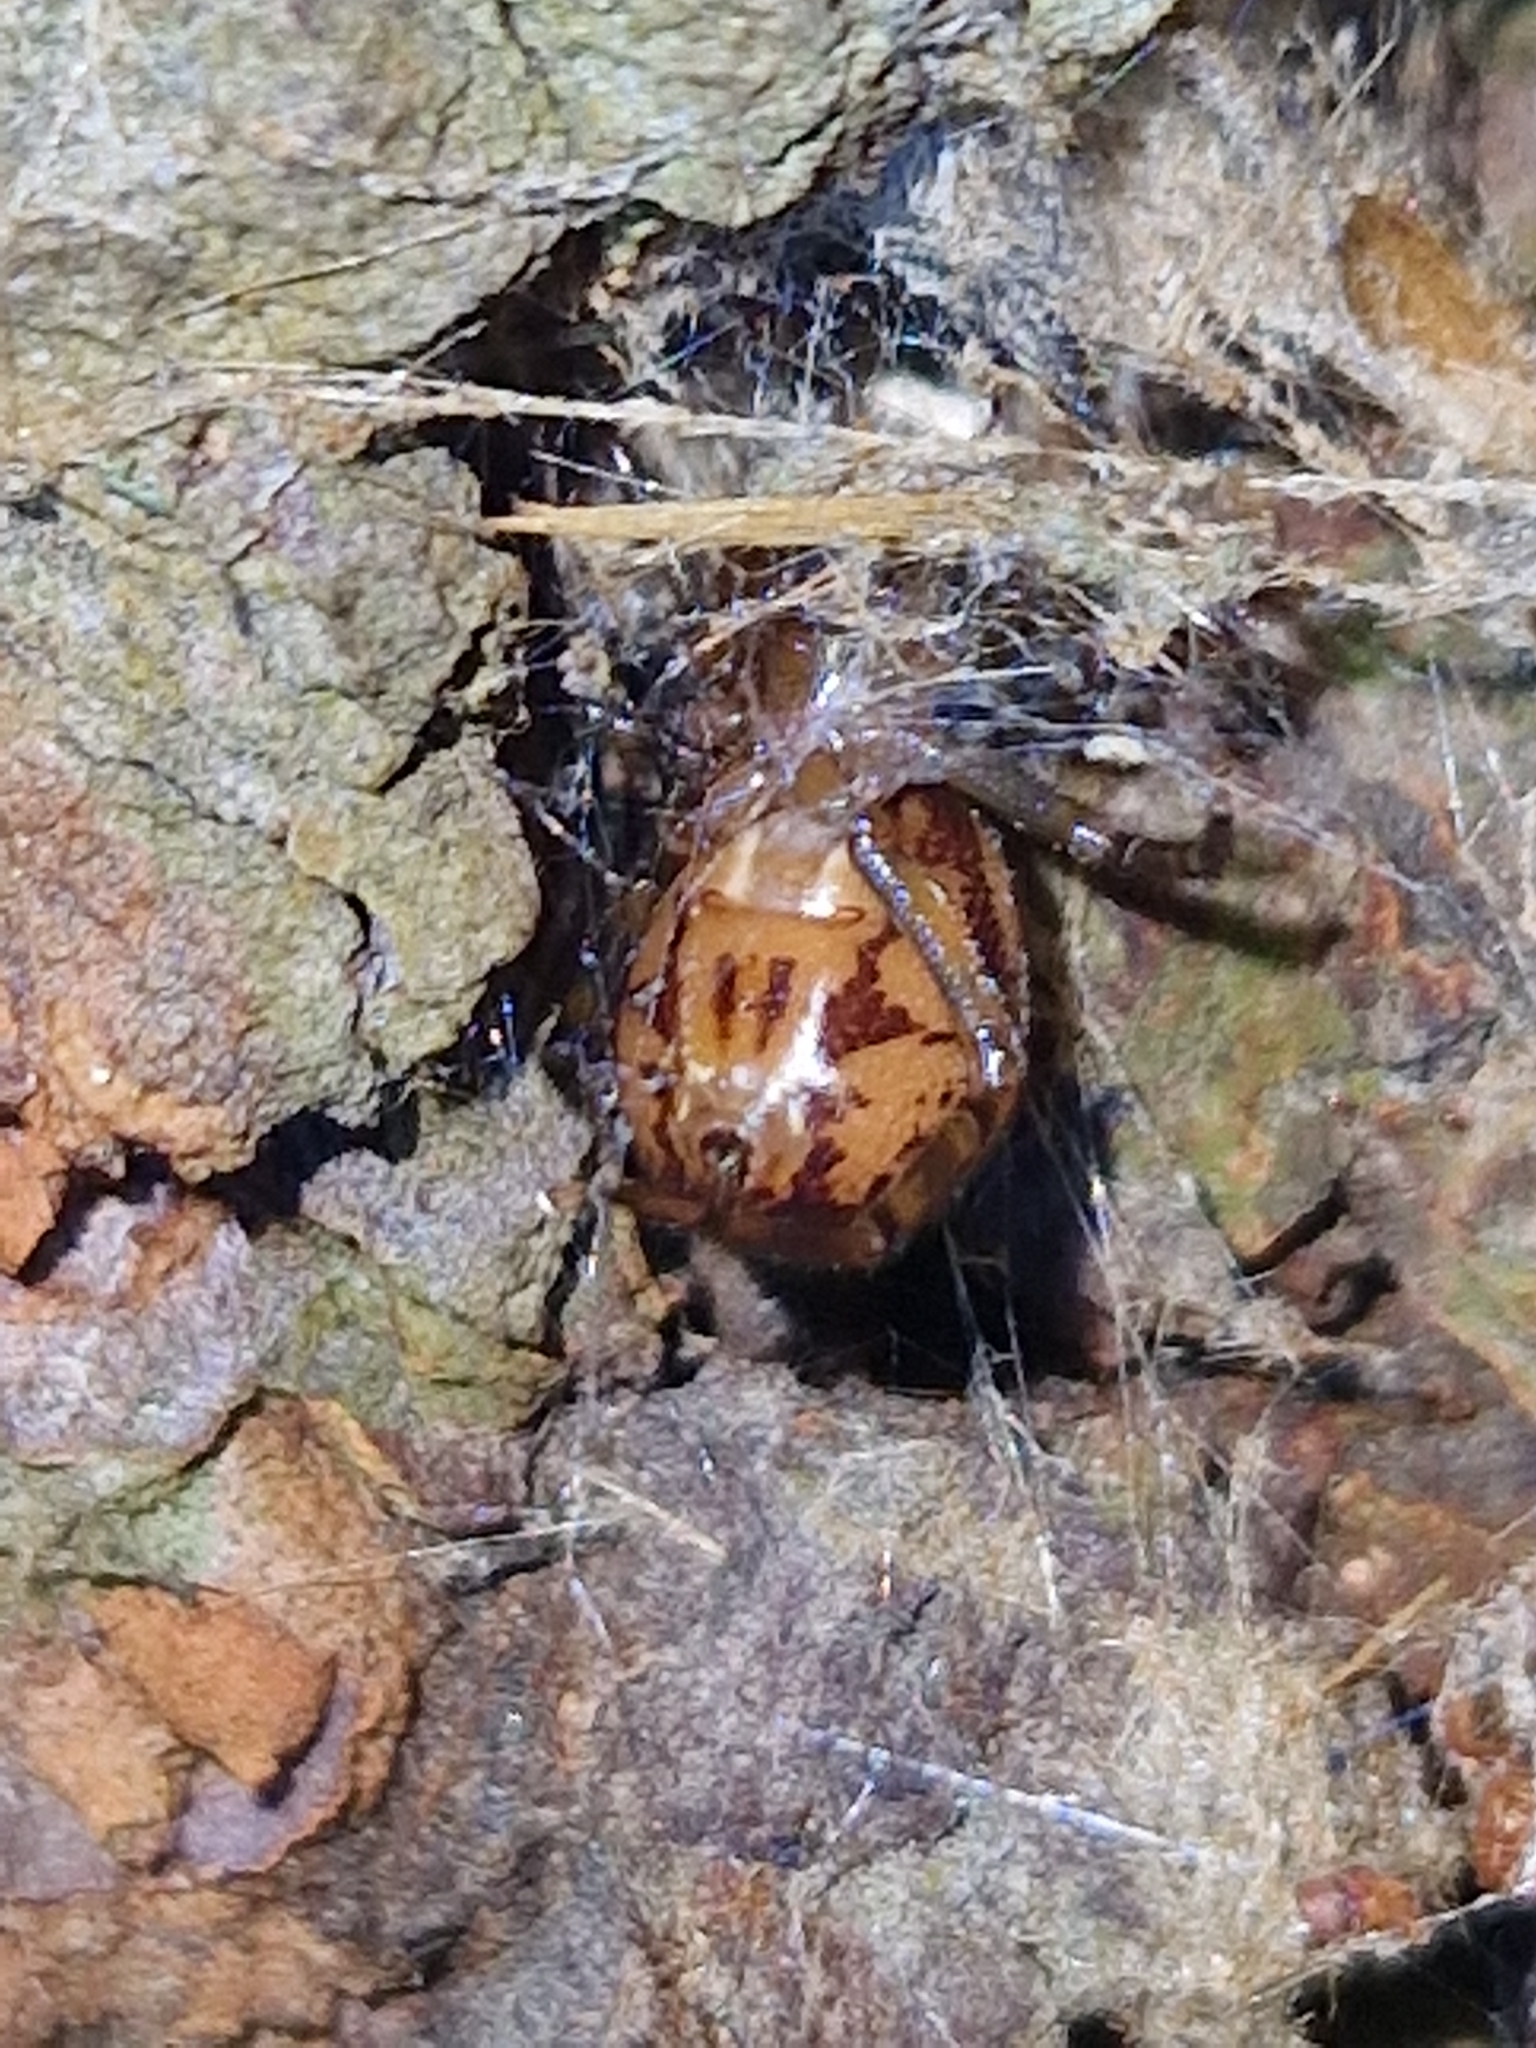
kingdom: Animalia
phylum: Arthropoda
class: Arachnida
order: Araneae
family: Theridiidae
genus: Steatoda
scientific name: Steatoda nobilis
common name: Cobweb weaver
